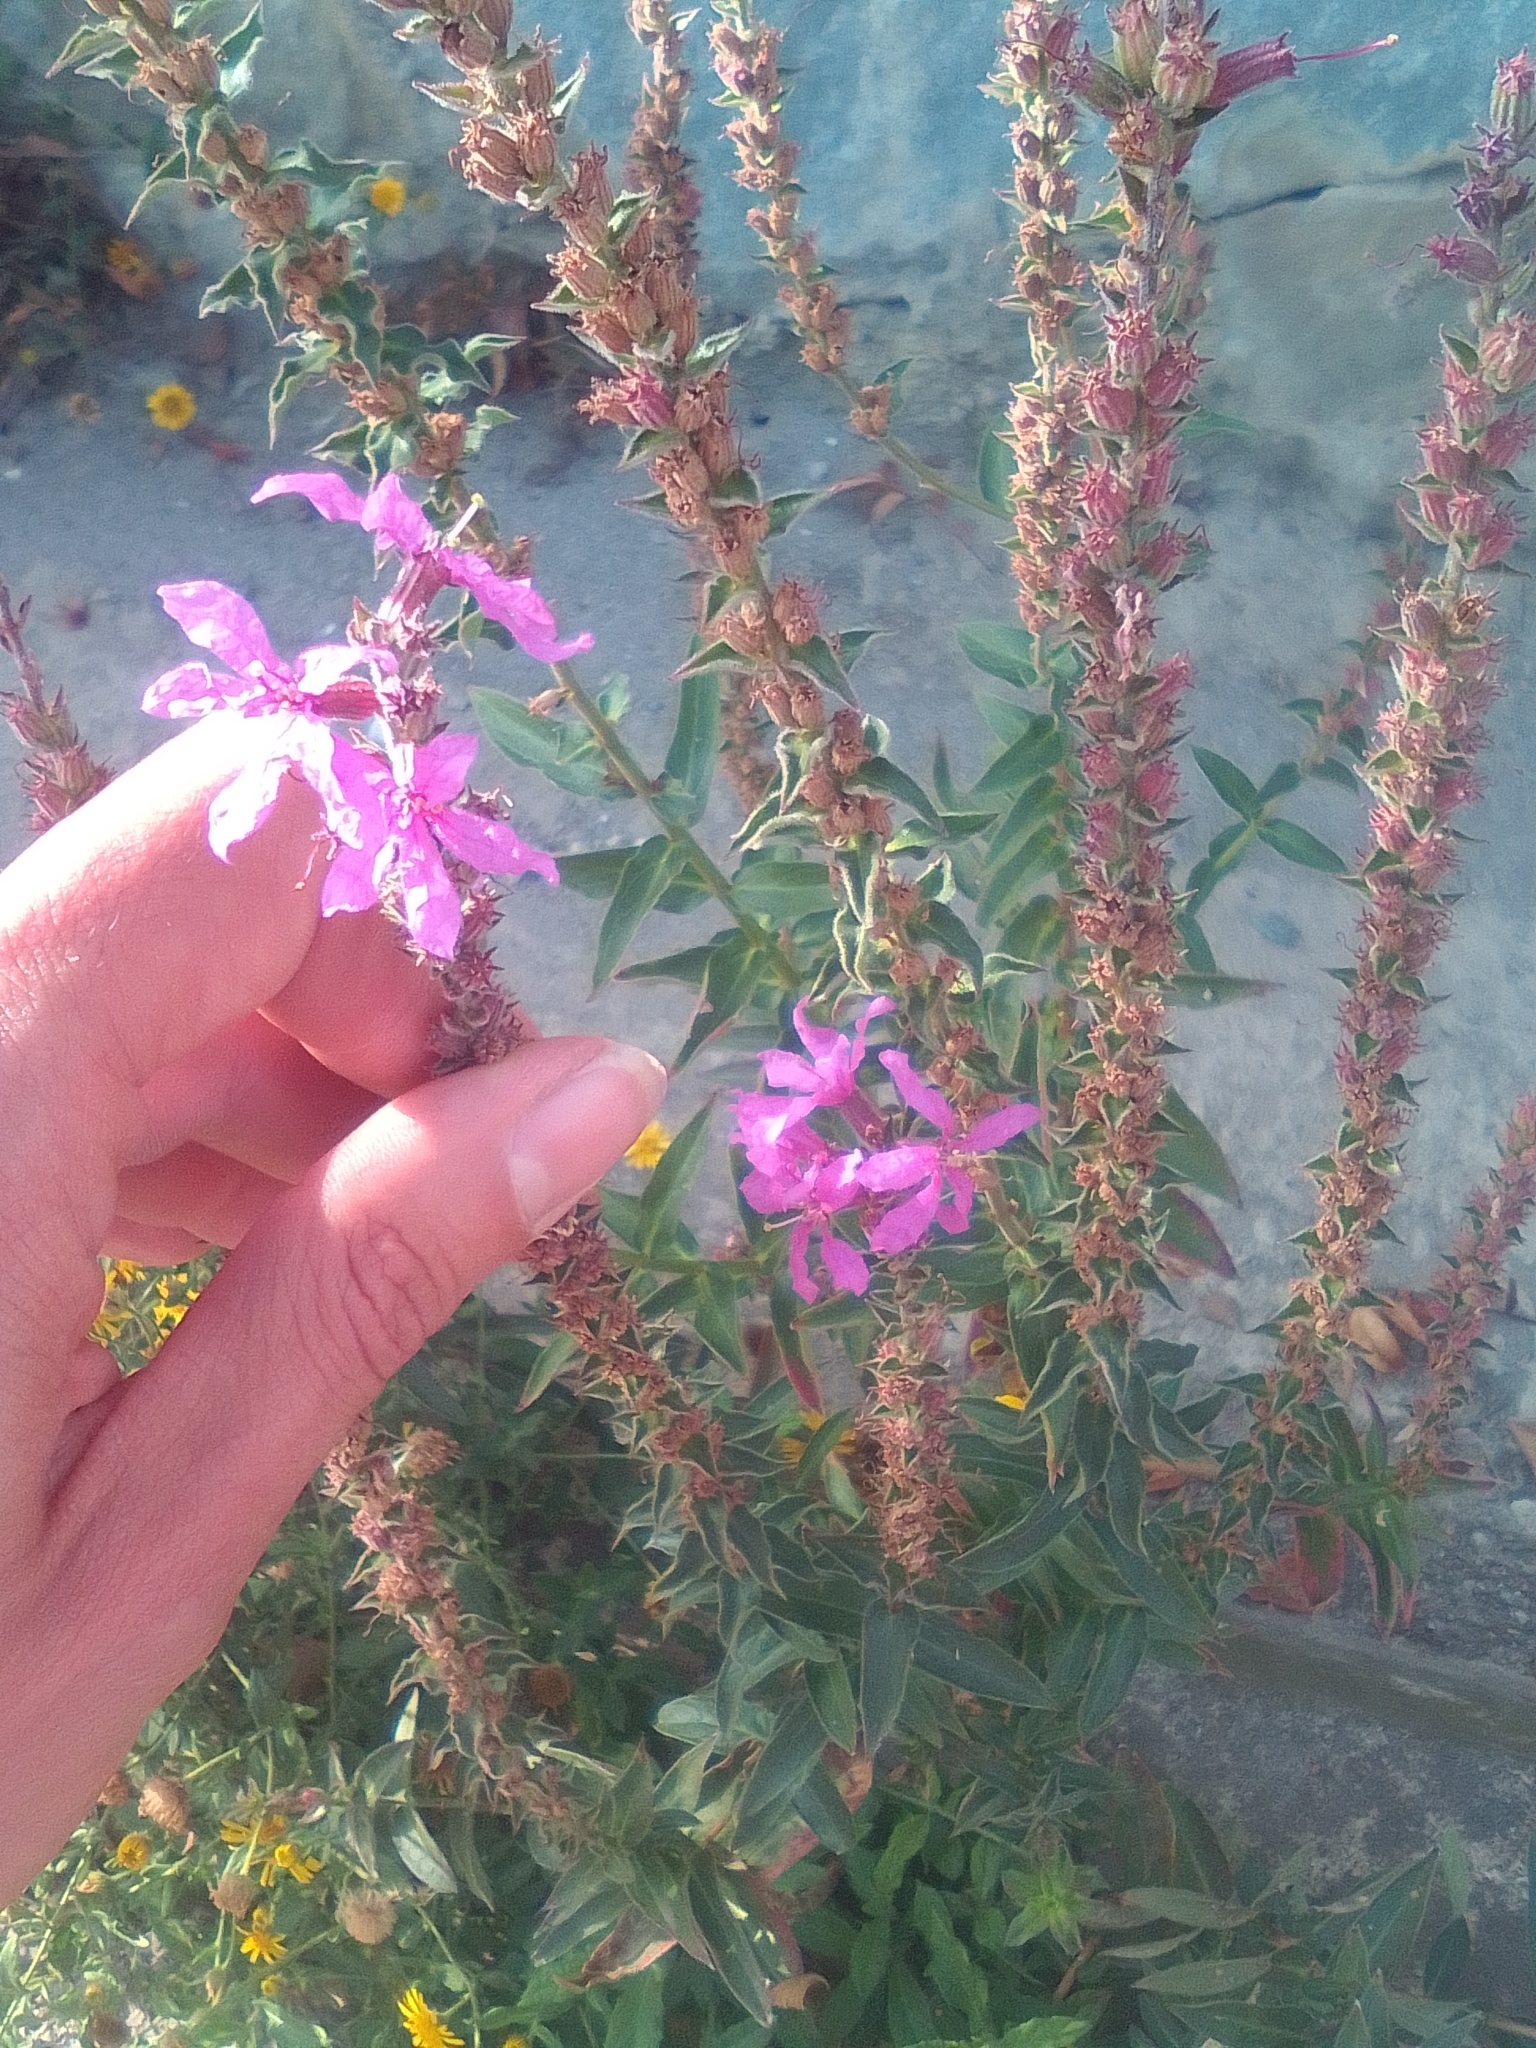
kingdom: Plantae
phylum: Tracheophyta
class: Magnoliopsida
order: Myrtales
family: Lythraceae
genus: Lythrum
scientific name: Lythrum salicaria
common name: Purple loosestrife
